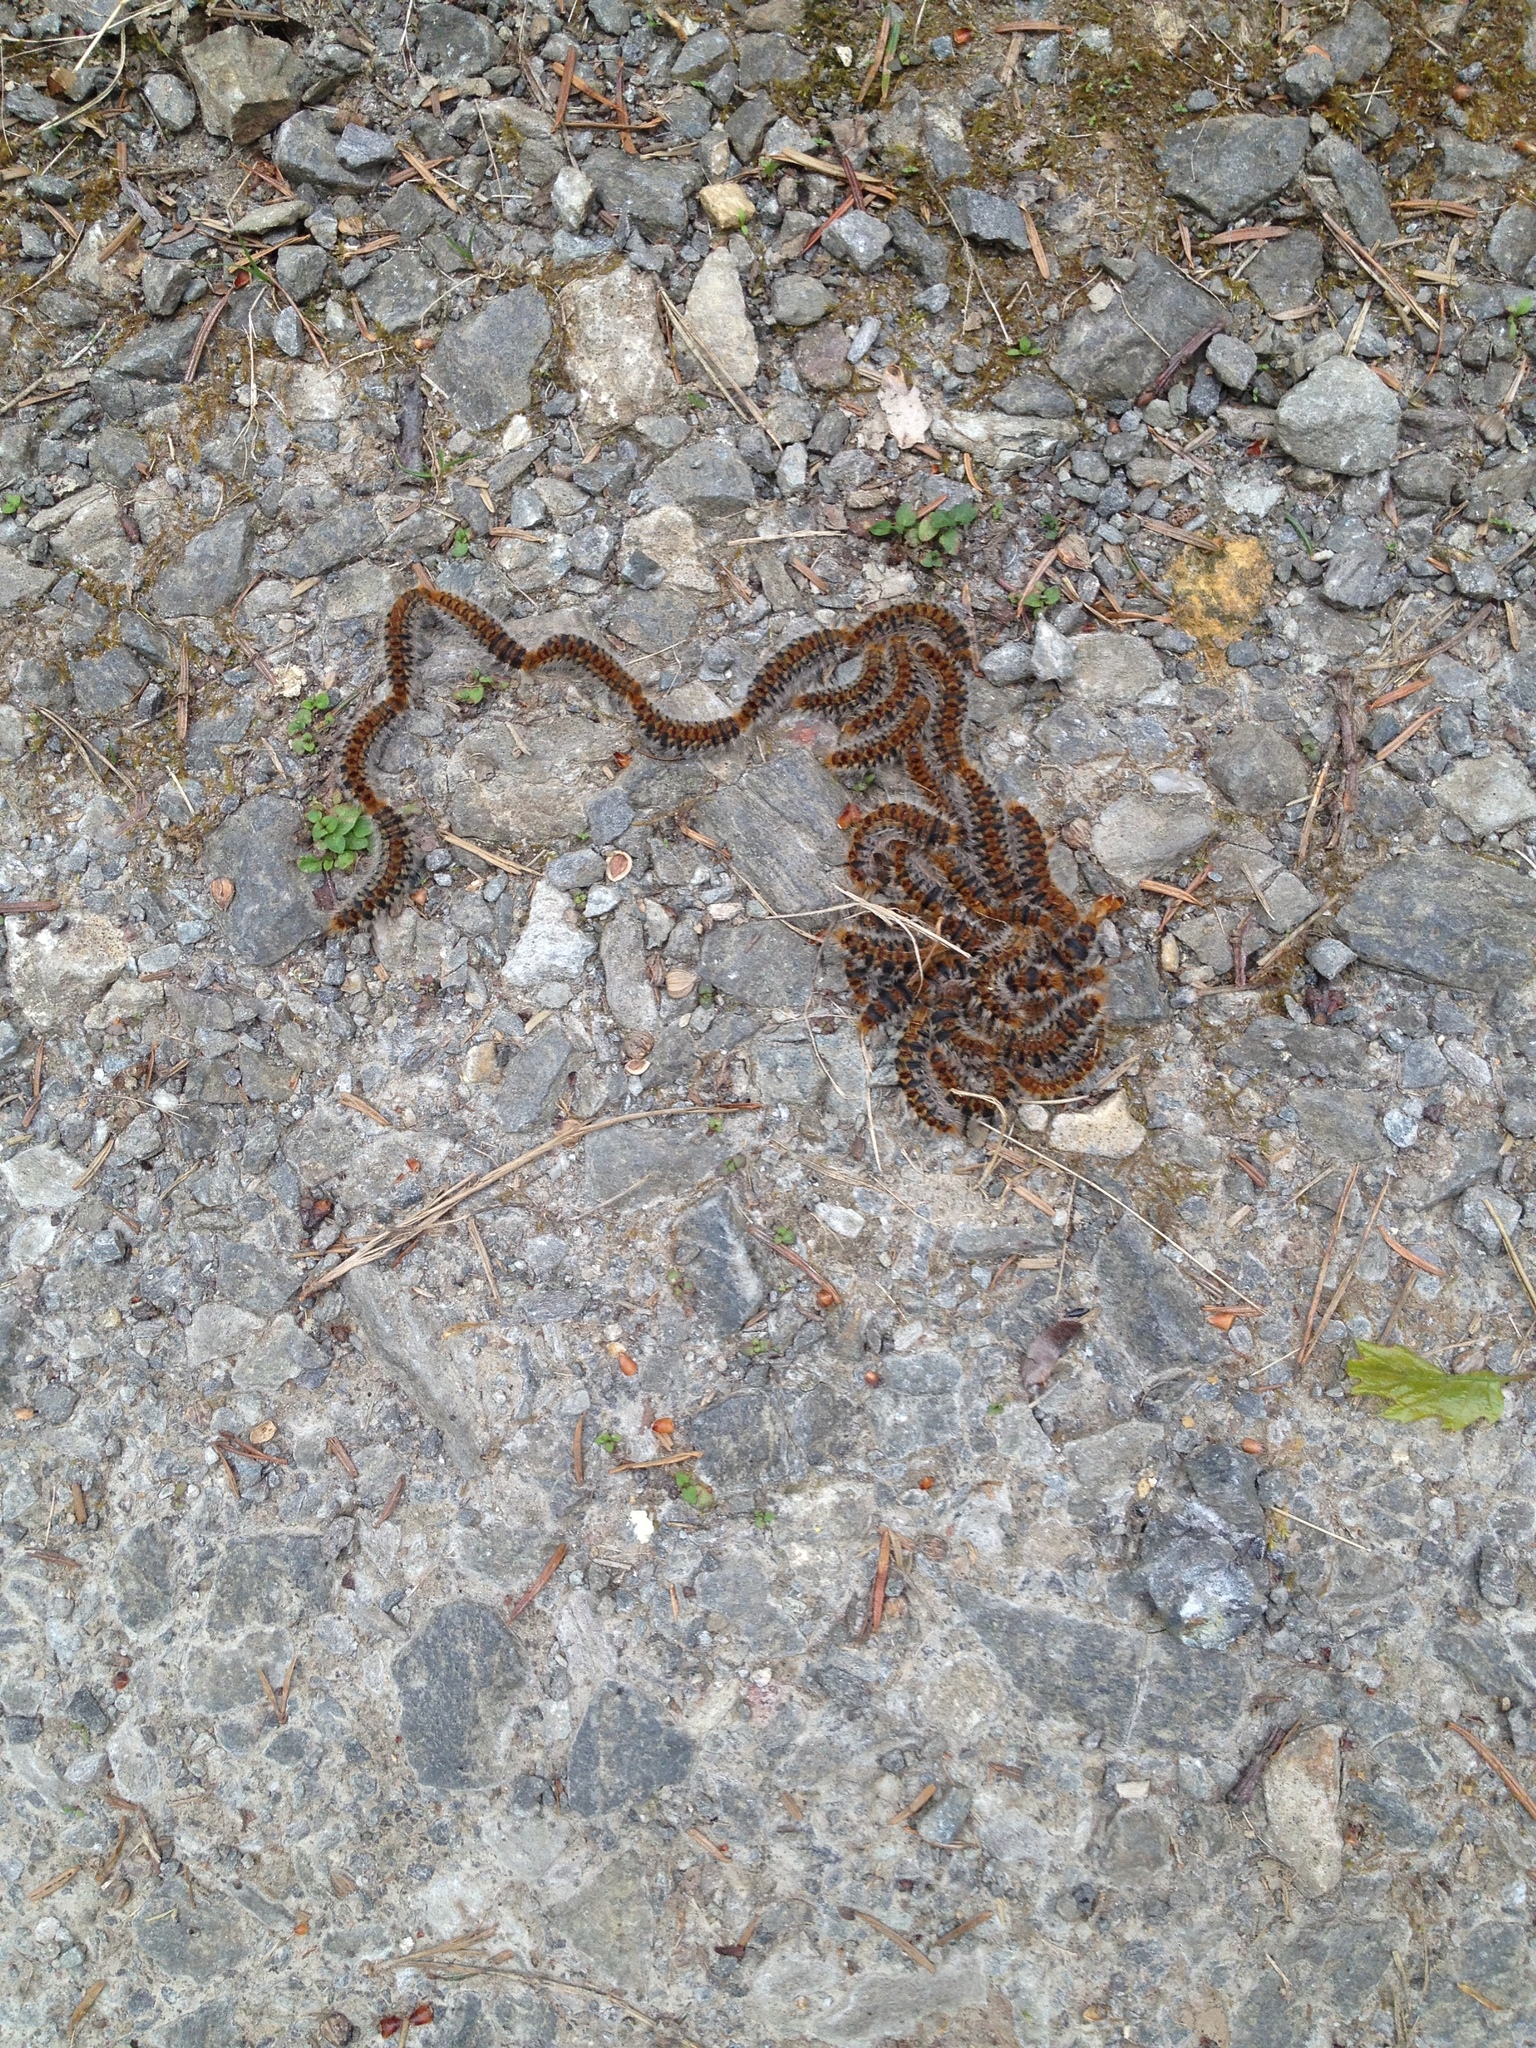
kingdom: Animalia
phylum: Arthropoda
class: Insecta
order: Lepidoptera
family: Notodontidae
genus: Thaumetopoea
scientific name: Thaumetopoea pityocampa
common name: Pine processionary
